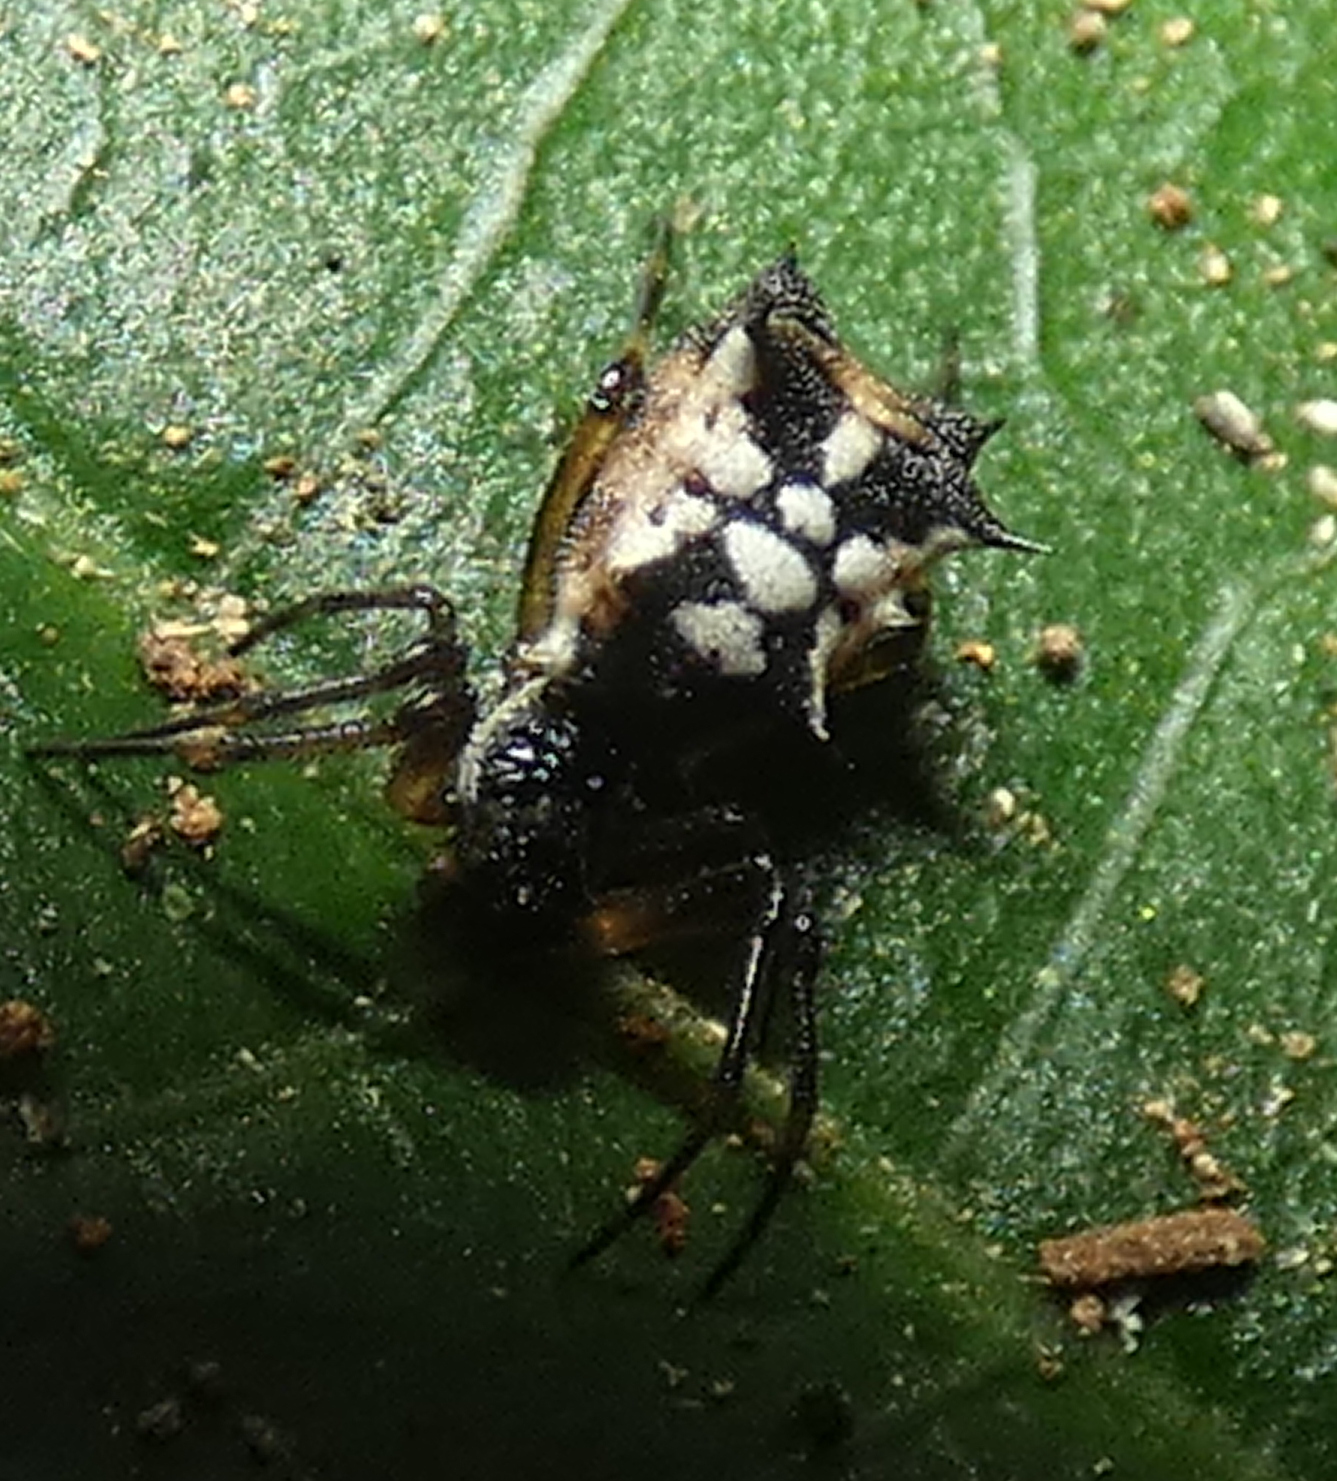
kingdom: Animalia
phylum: Arthropoda
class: Arachnida
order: Araneae
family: Araneidae
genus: Micrathena
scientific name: Micrathena picta
